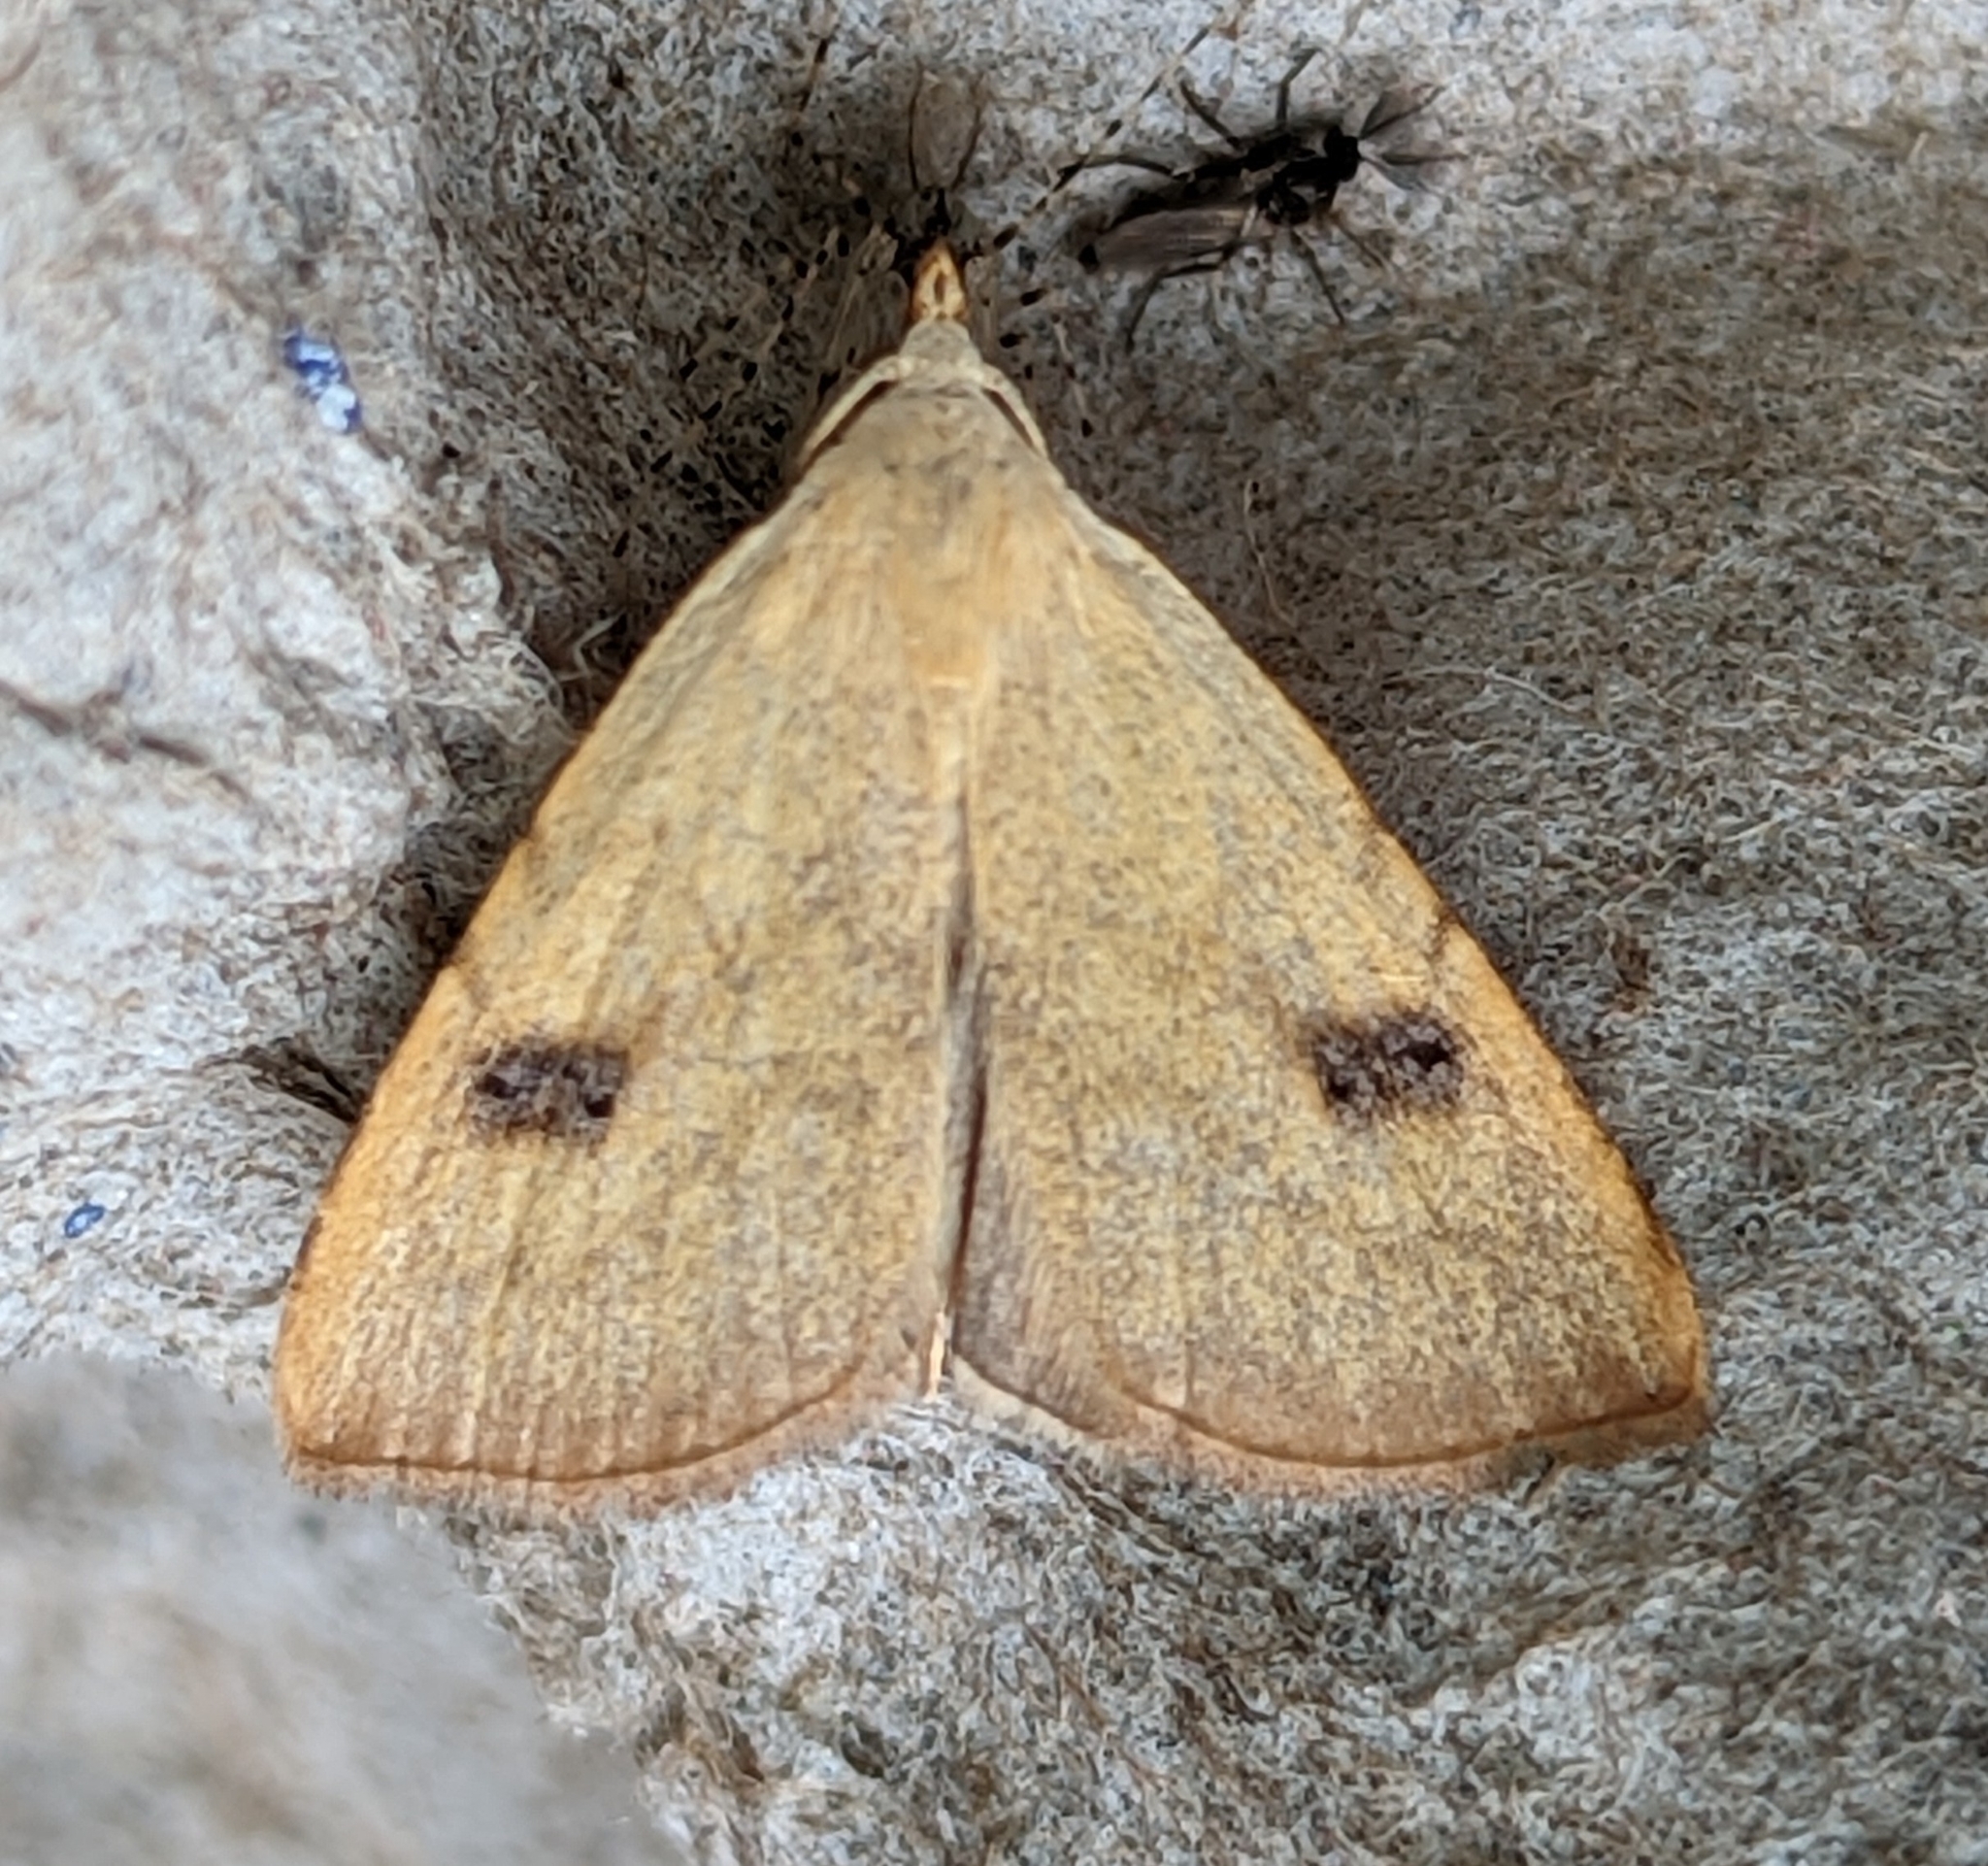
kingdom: Animalia
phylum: Arthropoda
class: Insecta
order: Lepidoptera
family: Erebidae
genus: Rivula
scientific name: Rivula sericealis
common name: Straw dot
